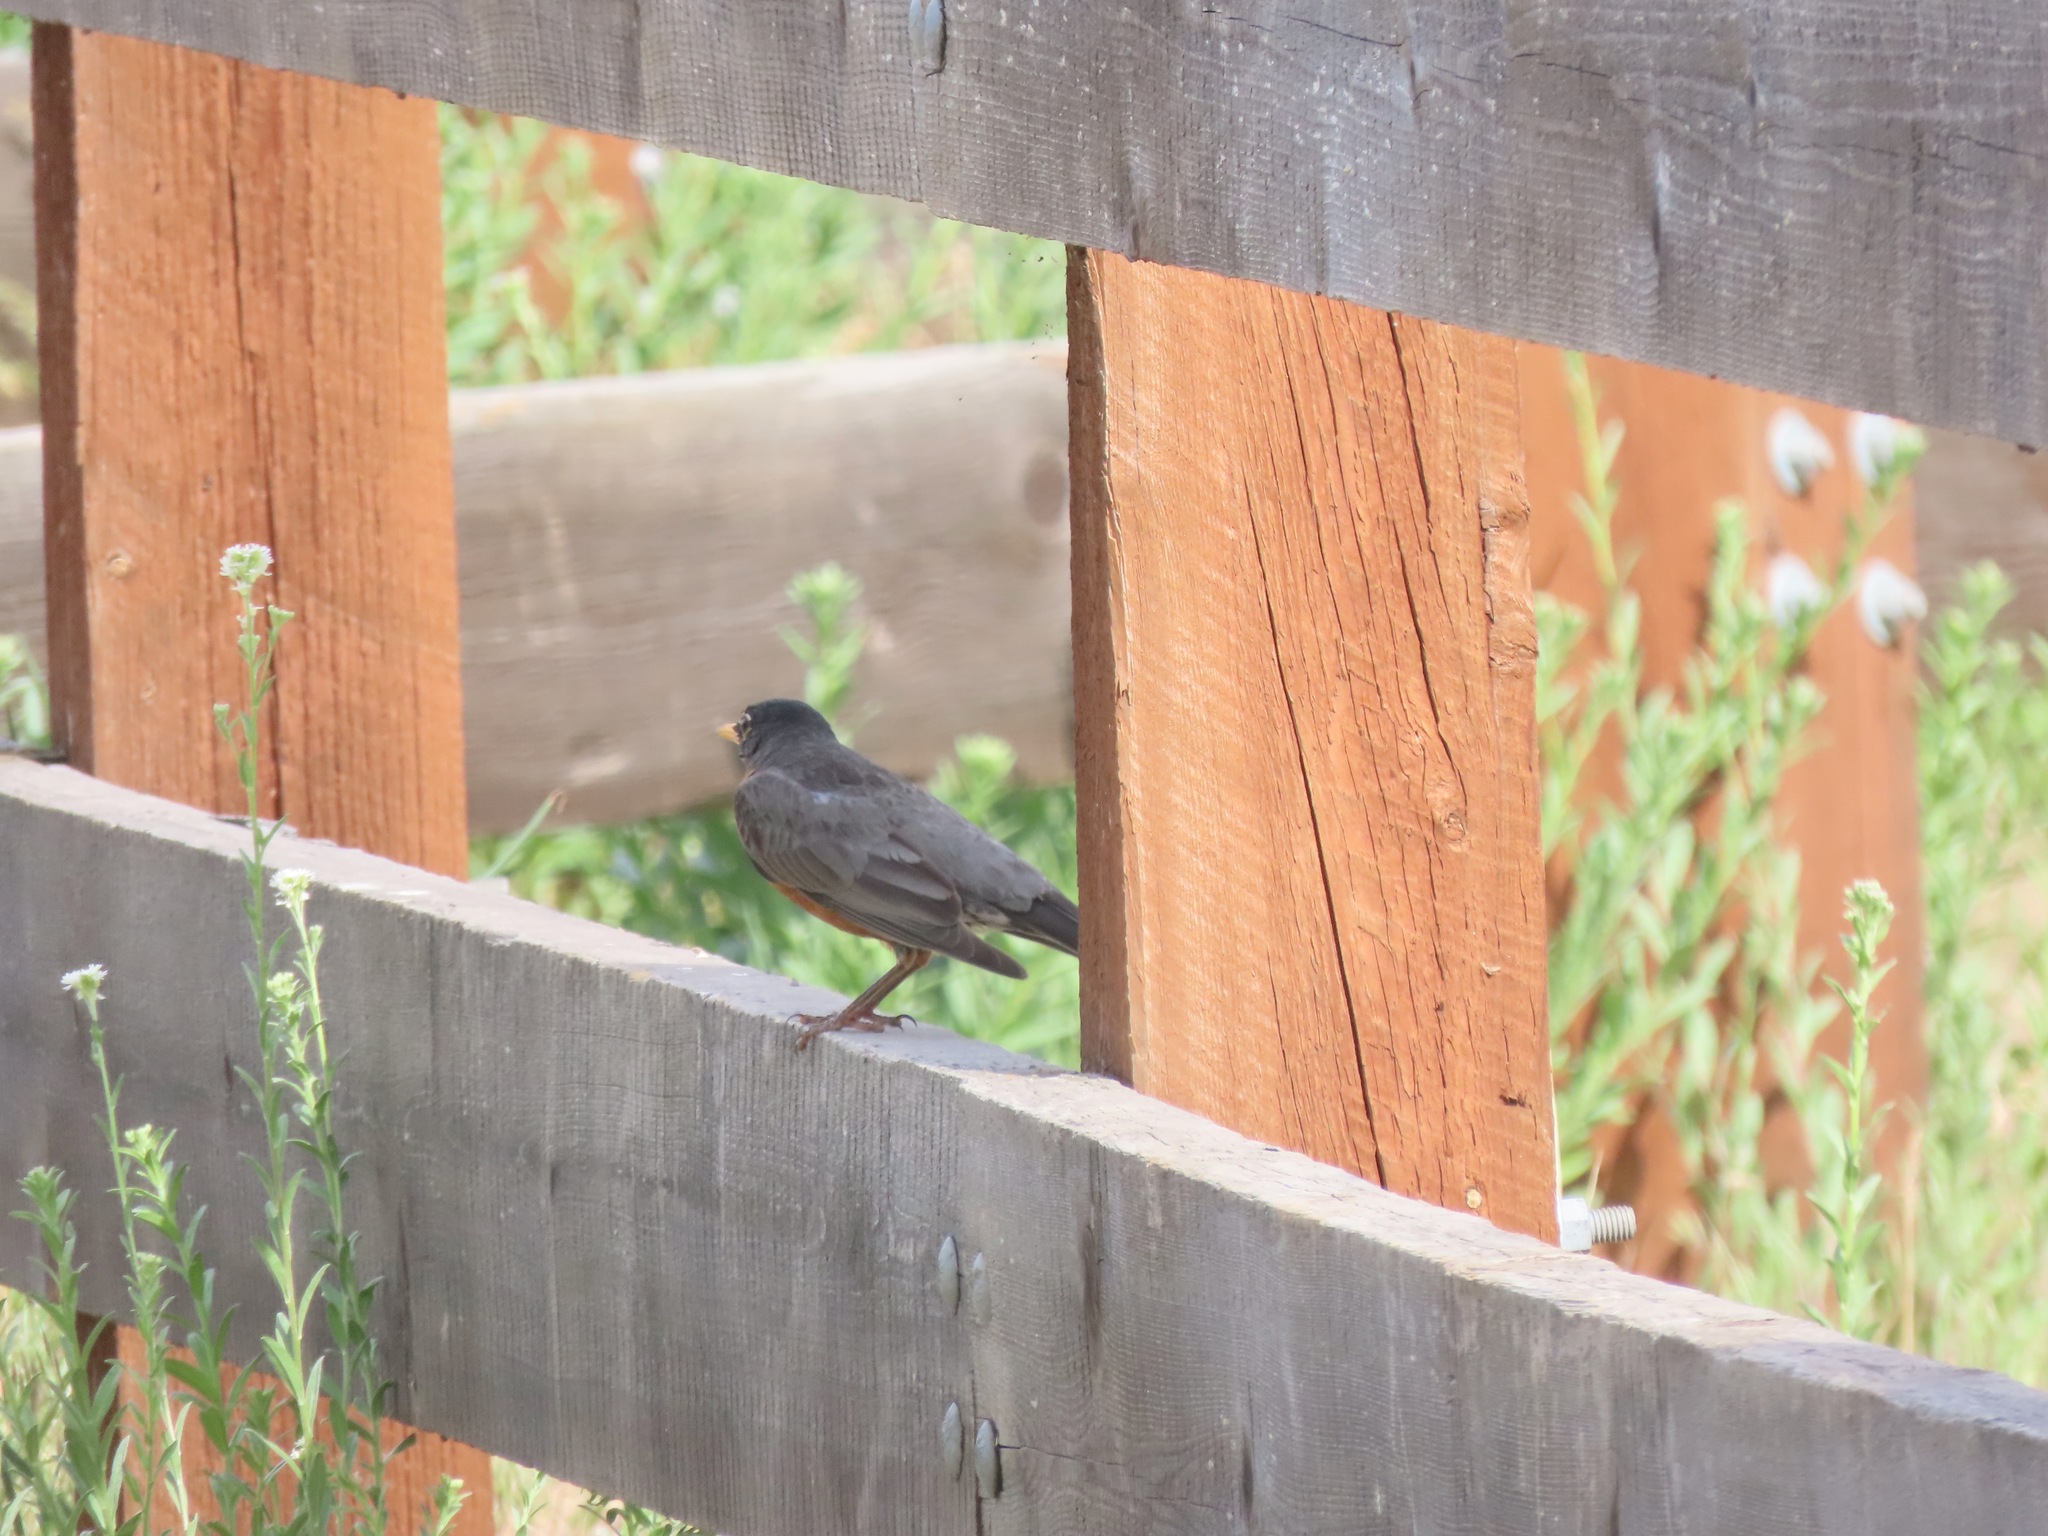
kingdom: Animalia
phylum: Chordata
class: Aves
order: Passeriformes
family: Turdidae
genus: Turdus
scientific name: Turdus migratorius
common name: American robin
